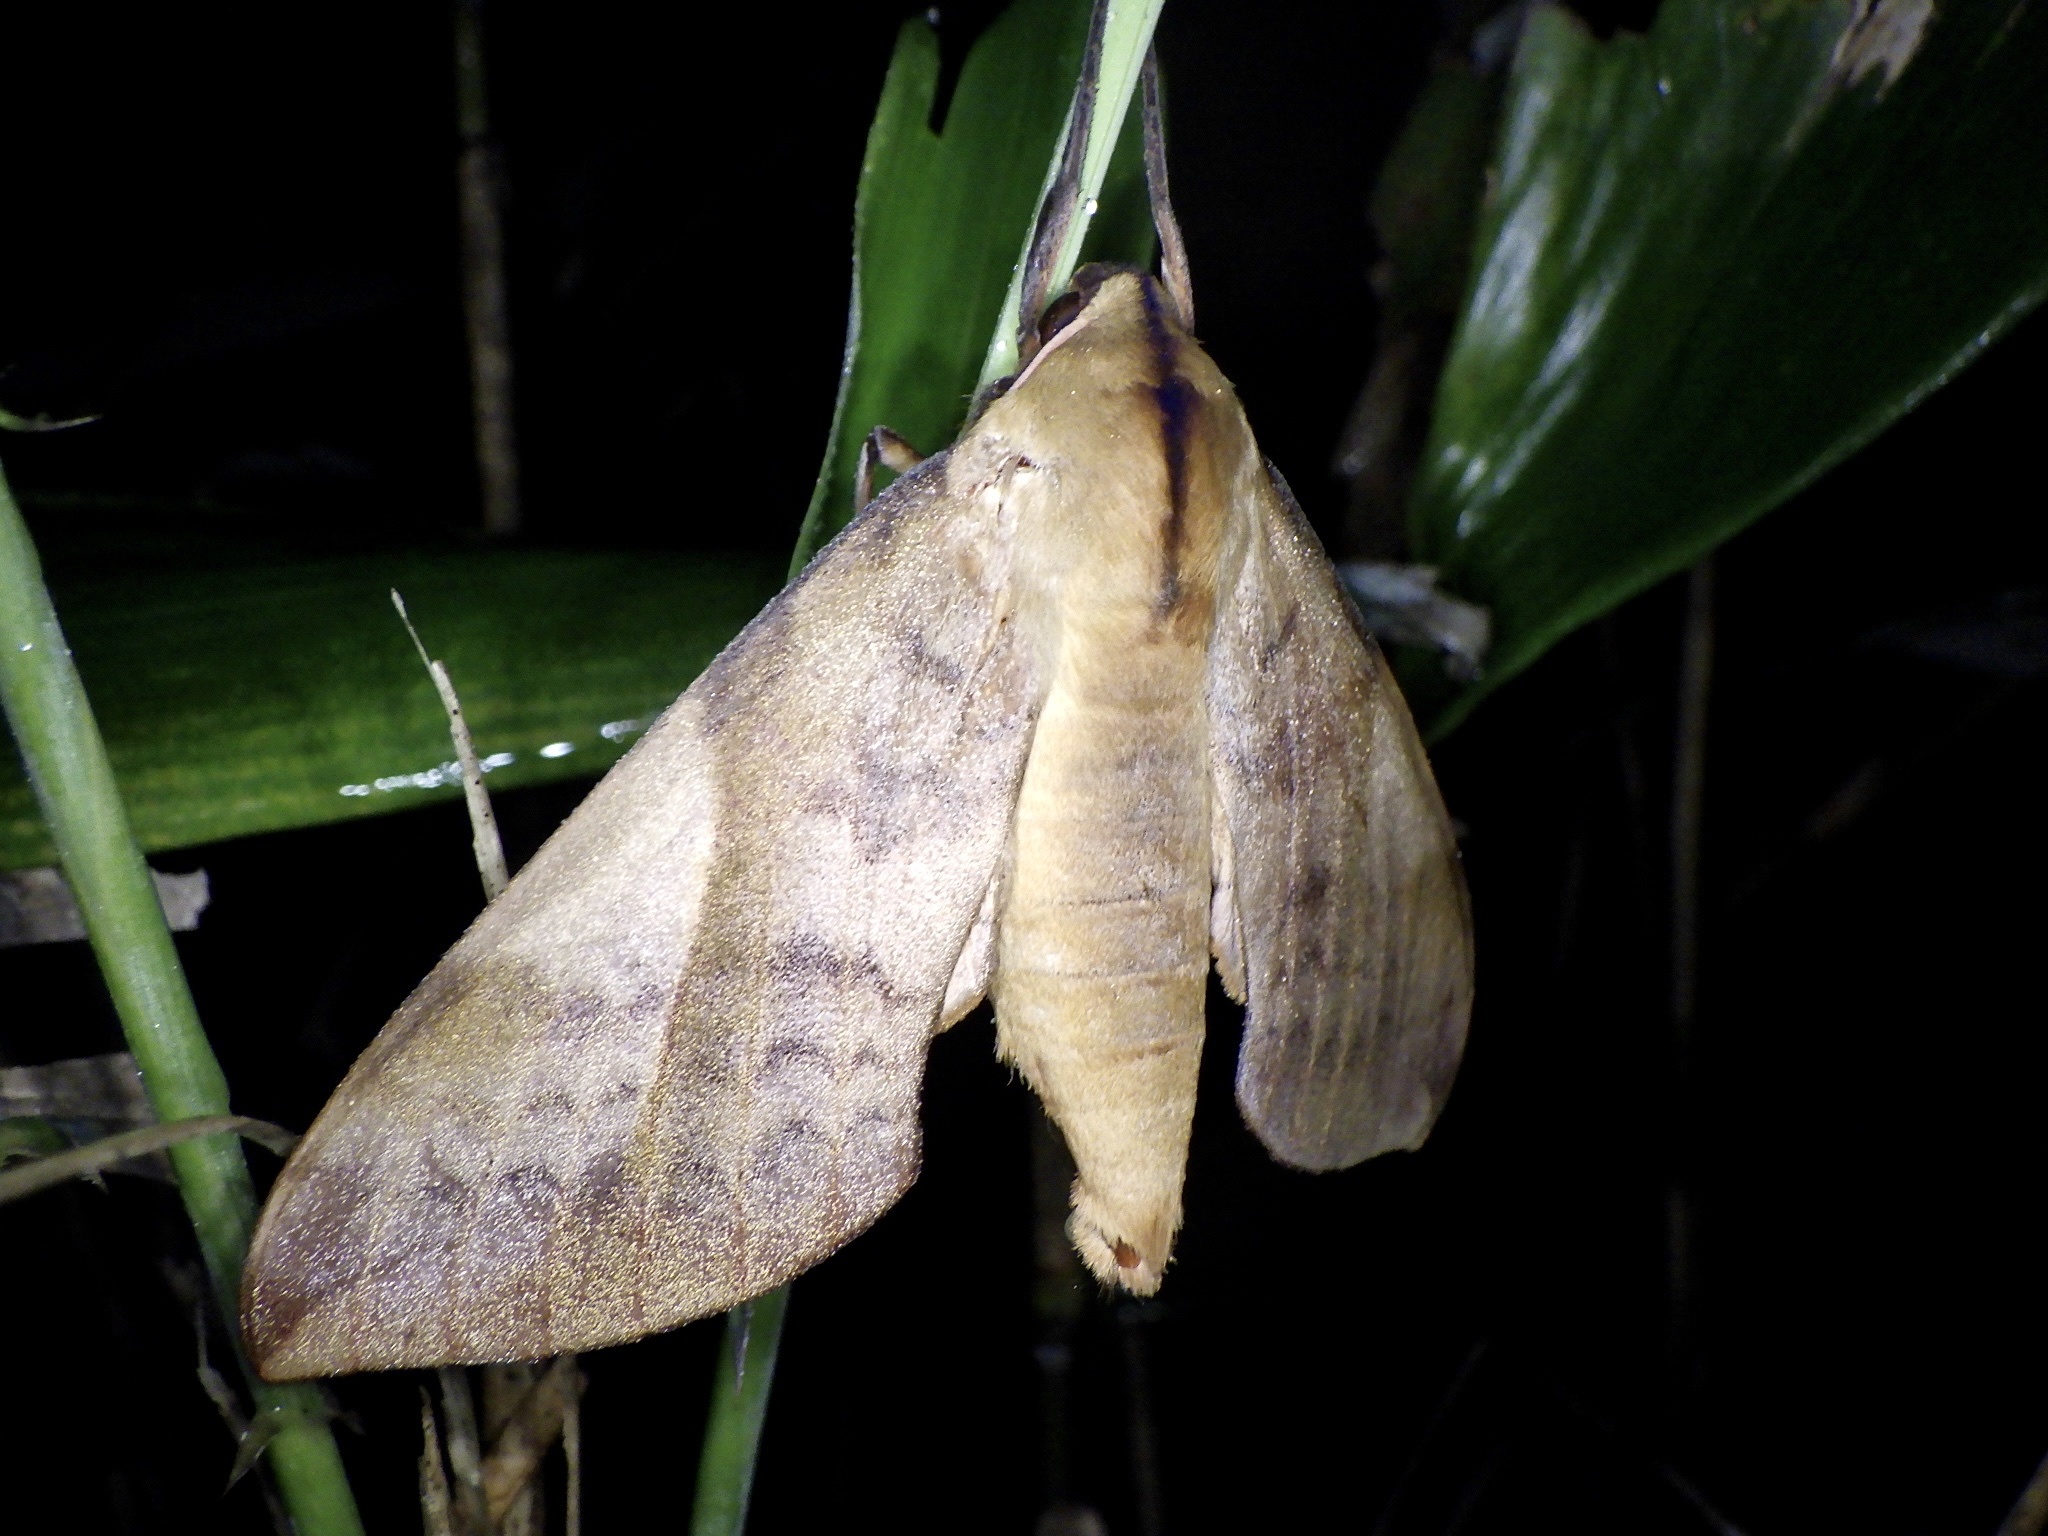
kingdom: Animalia
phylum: Arthropoda
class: Insecta
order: Lepidoptera
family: Sphingidae
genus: Clanis
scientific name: Clanis bilineata
